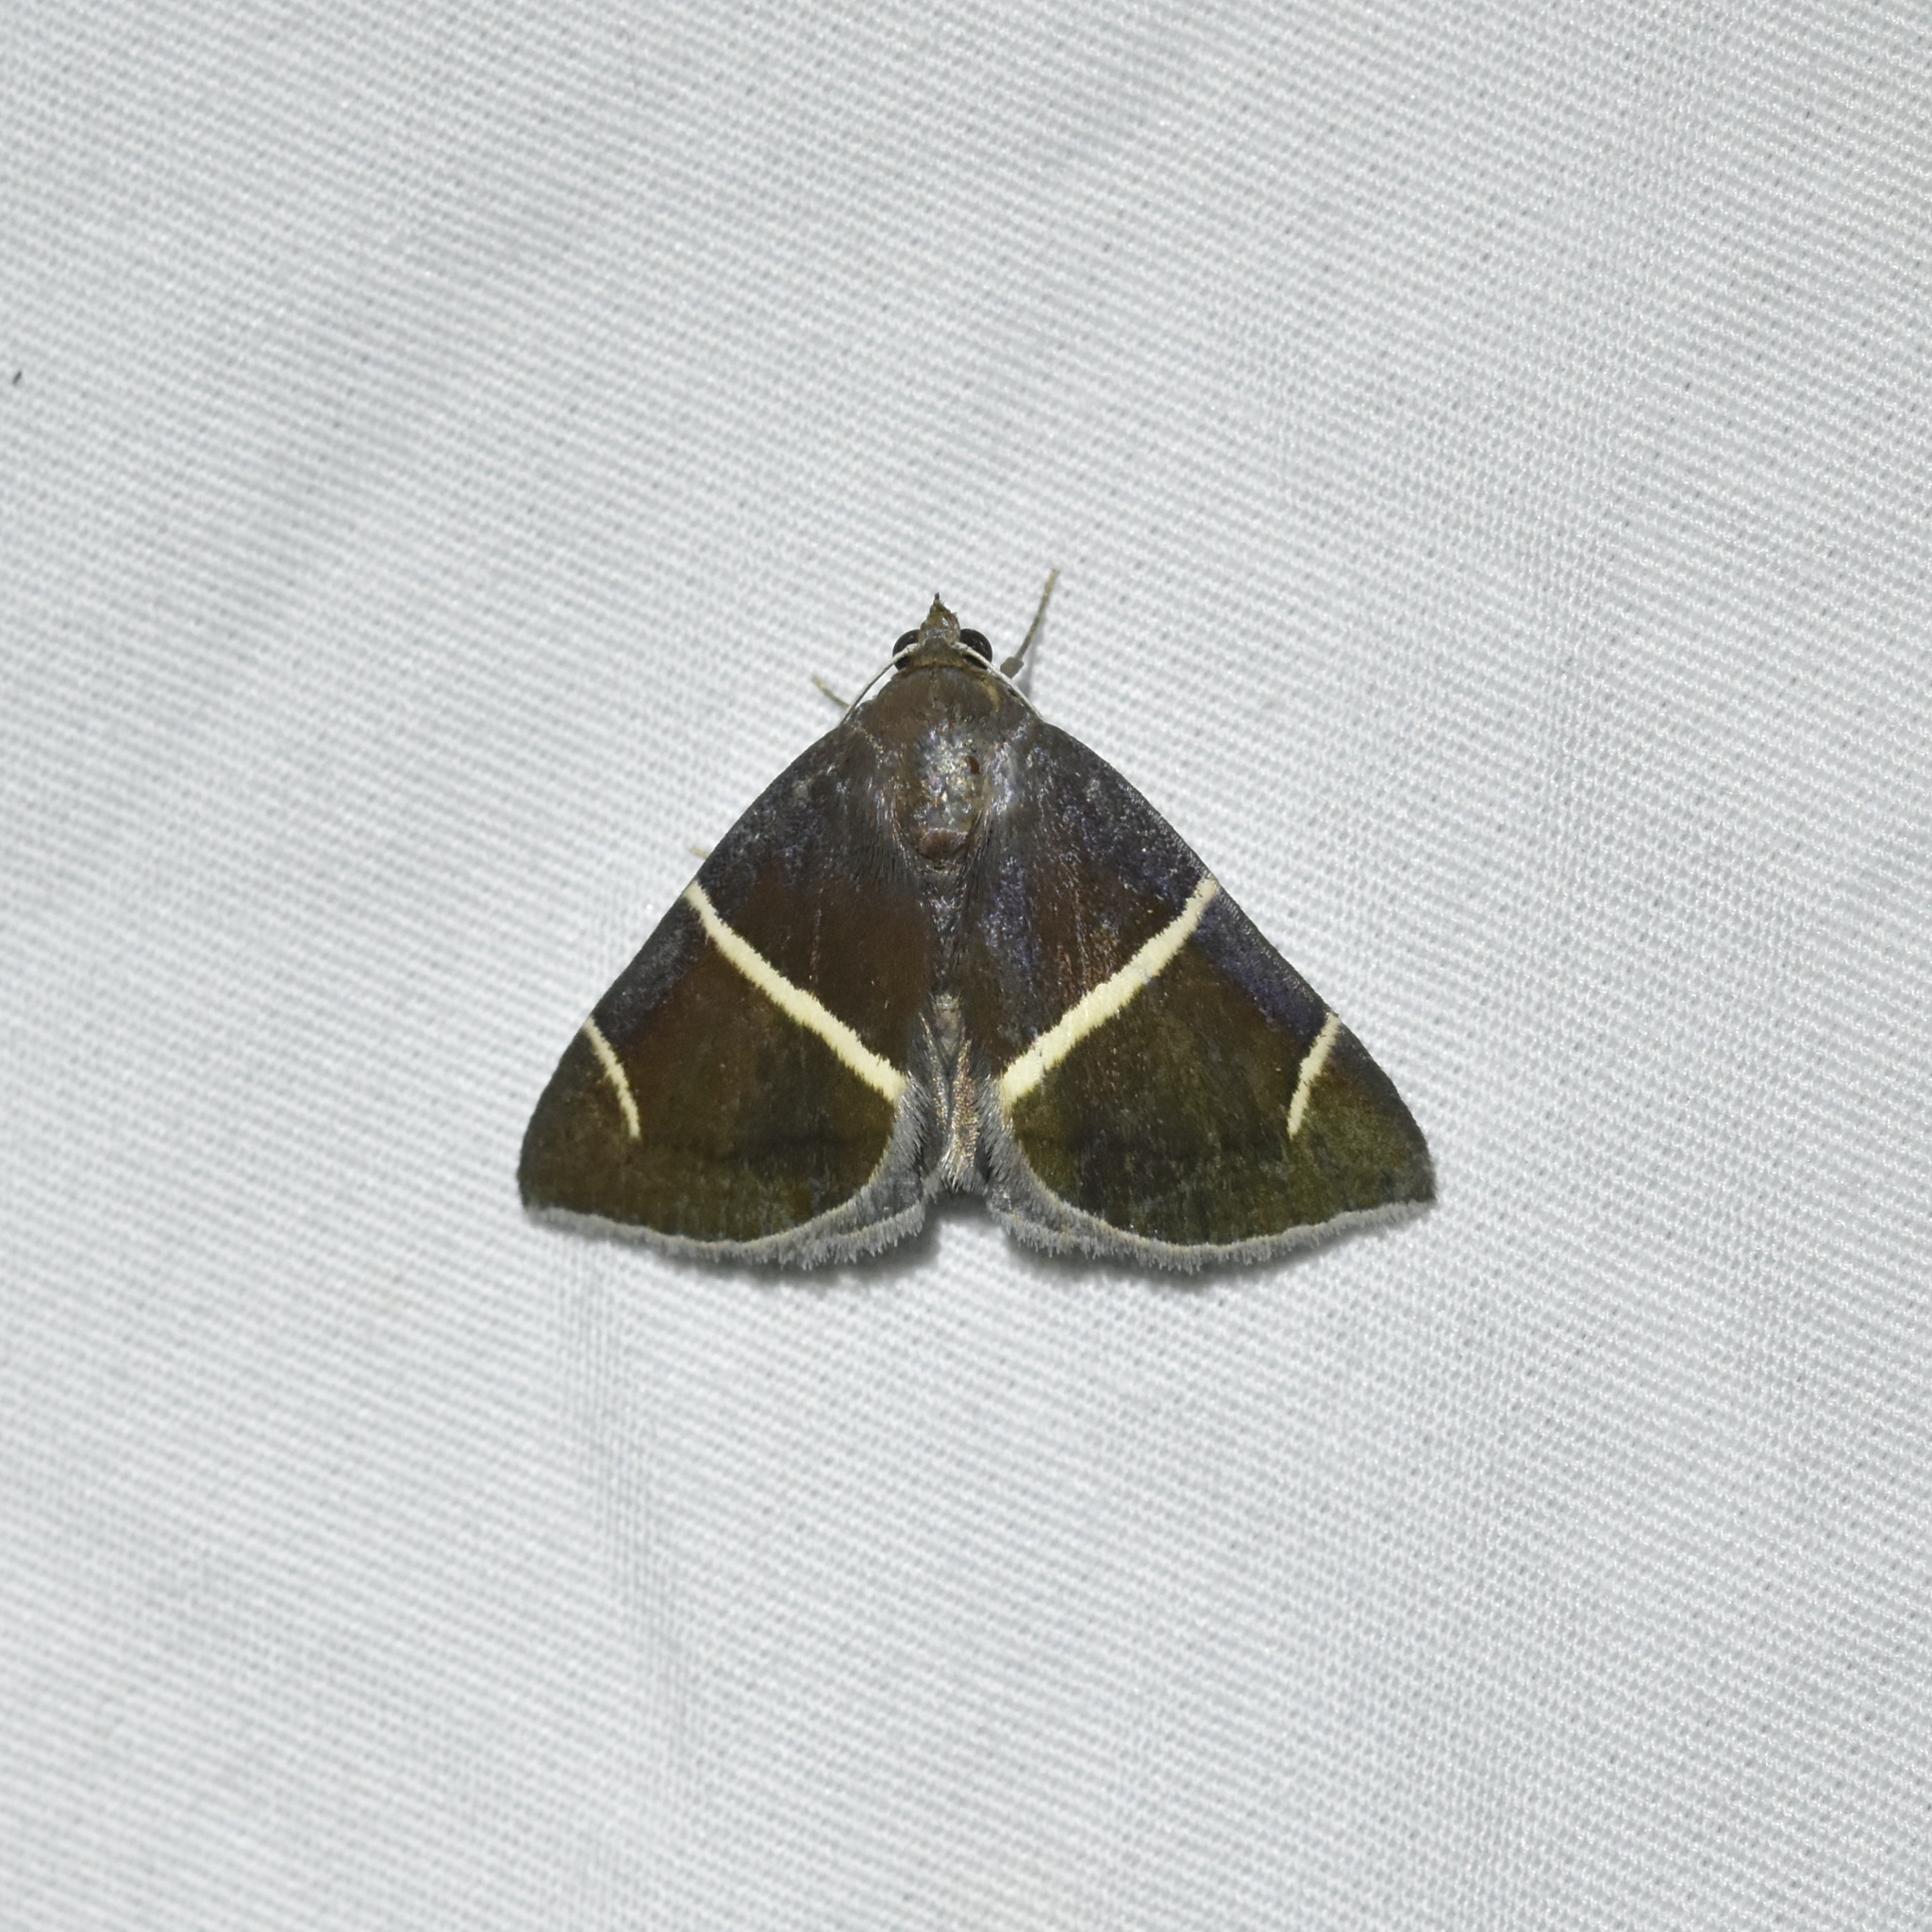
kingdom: Animalia
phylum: Arthropoda
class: Insecta
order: Lepidoptera
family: Erebidae
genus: Argyrostrotis
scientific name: Argyrostrotis anilis
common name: Short-lined chocolate
